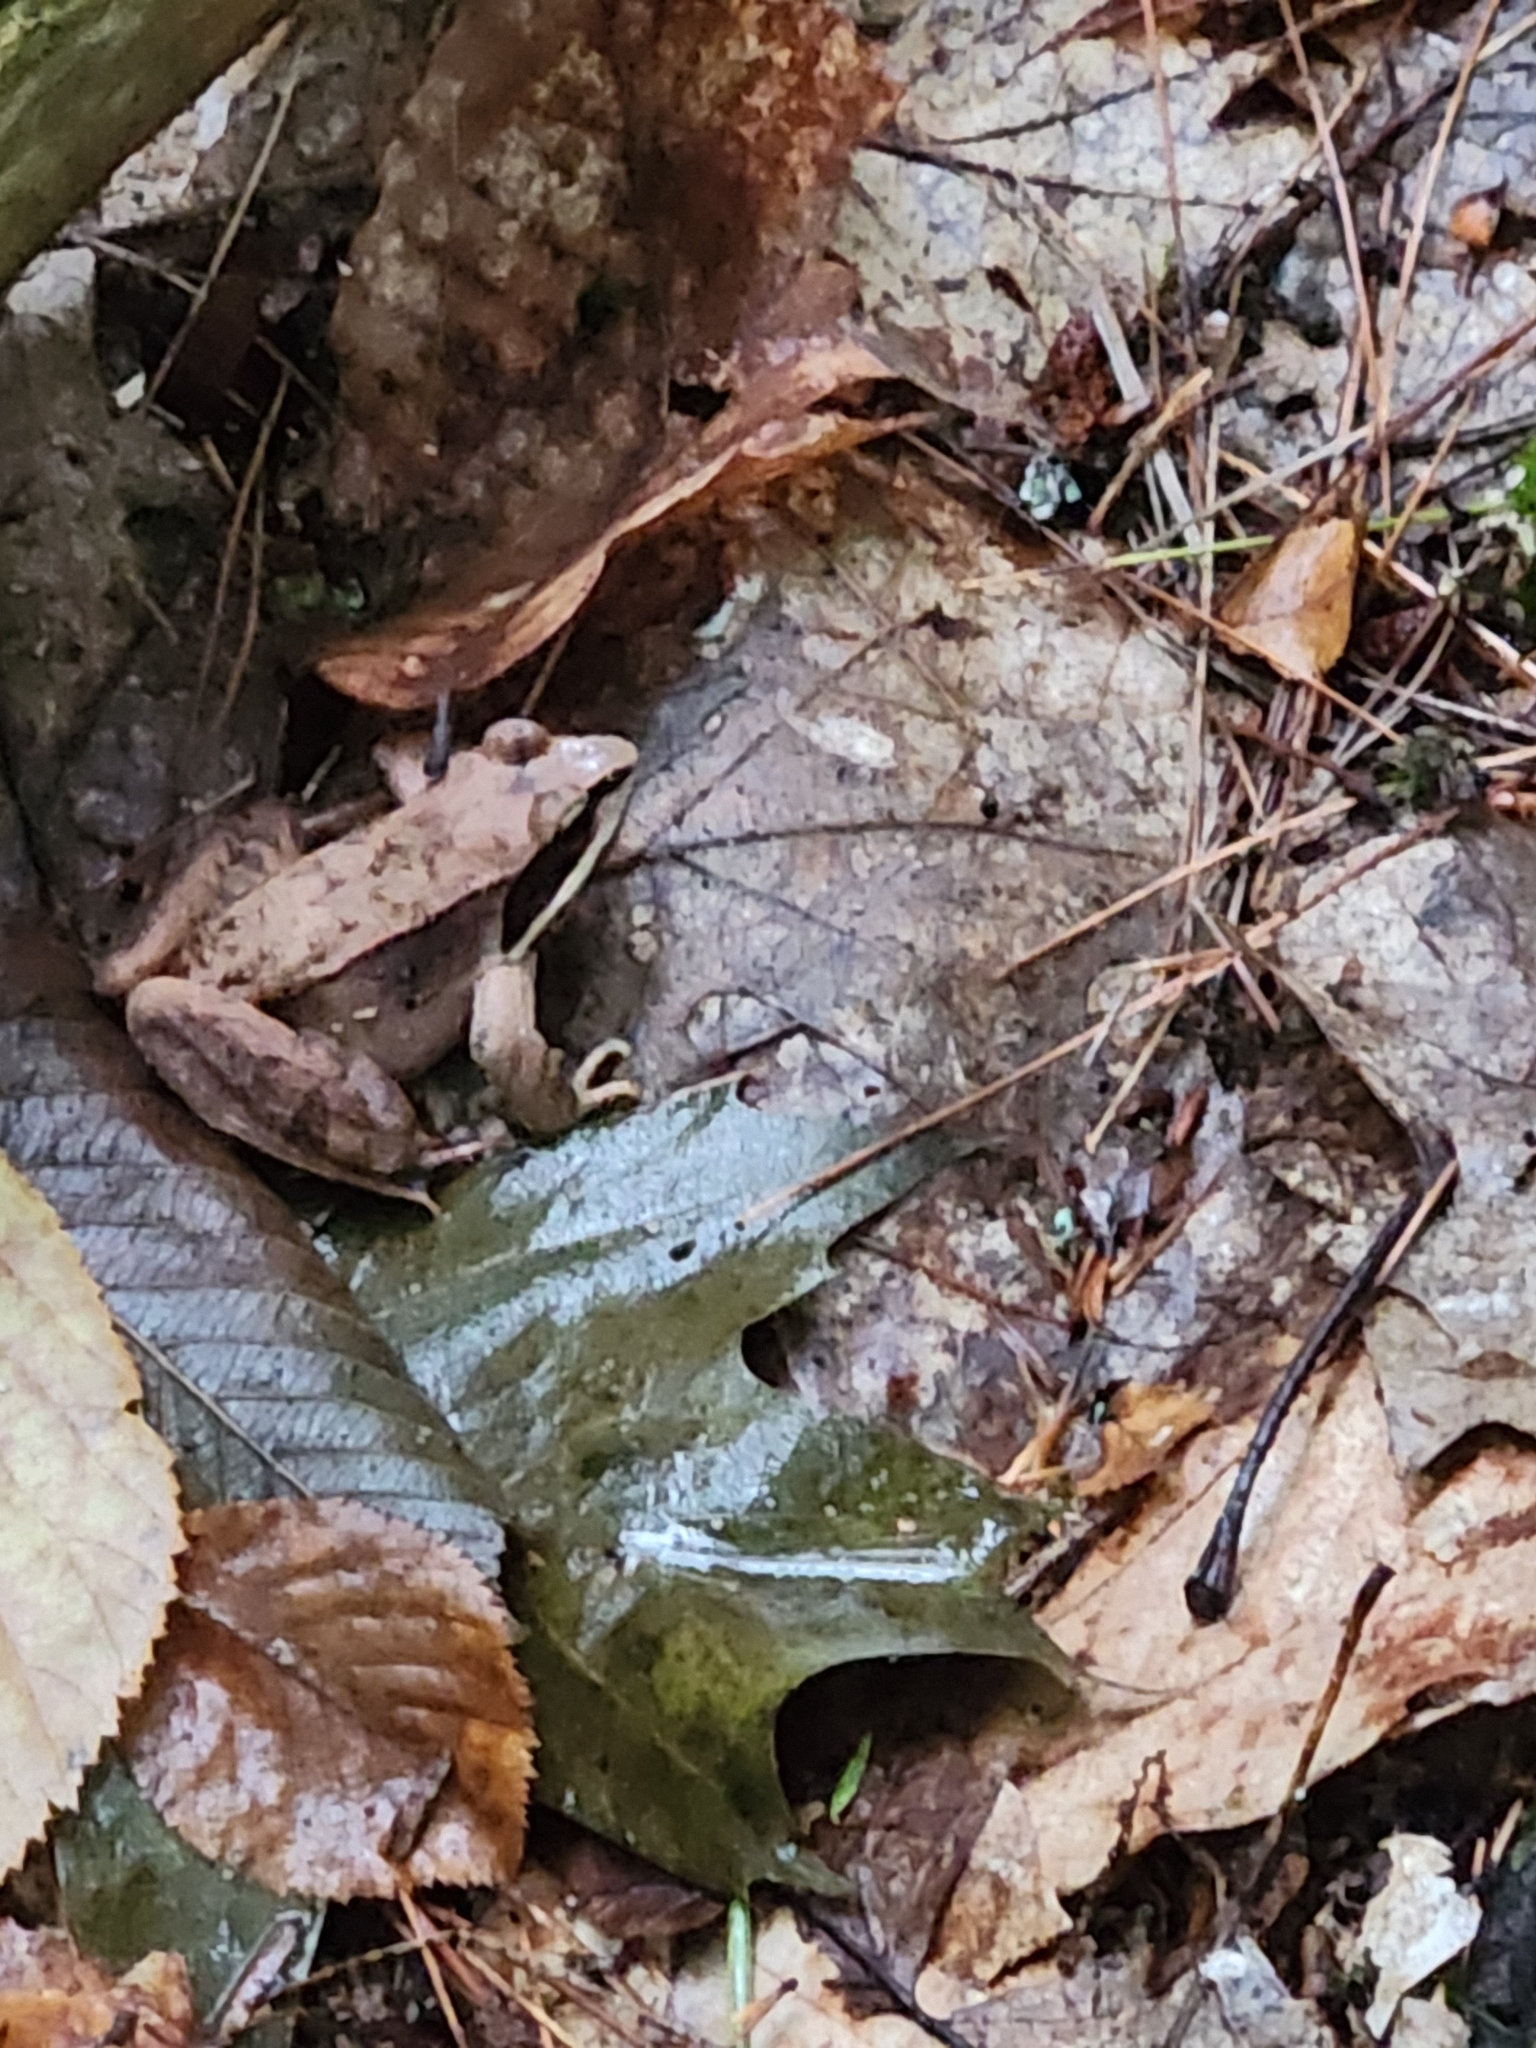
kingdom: Animalia
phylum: Chordata
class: Amphibia
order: Anura
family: Ranidae
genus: Lithobates
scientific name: Lithobates sylvaticus
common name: Wood frog
